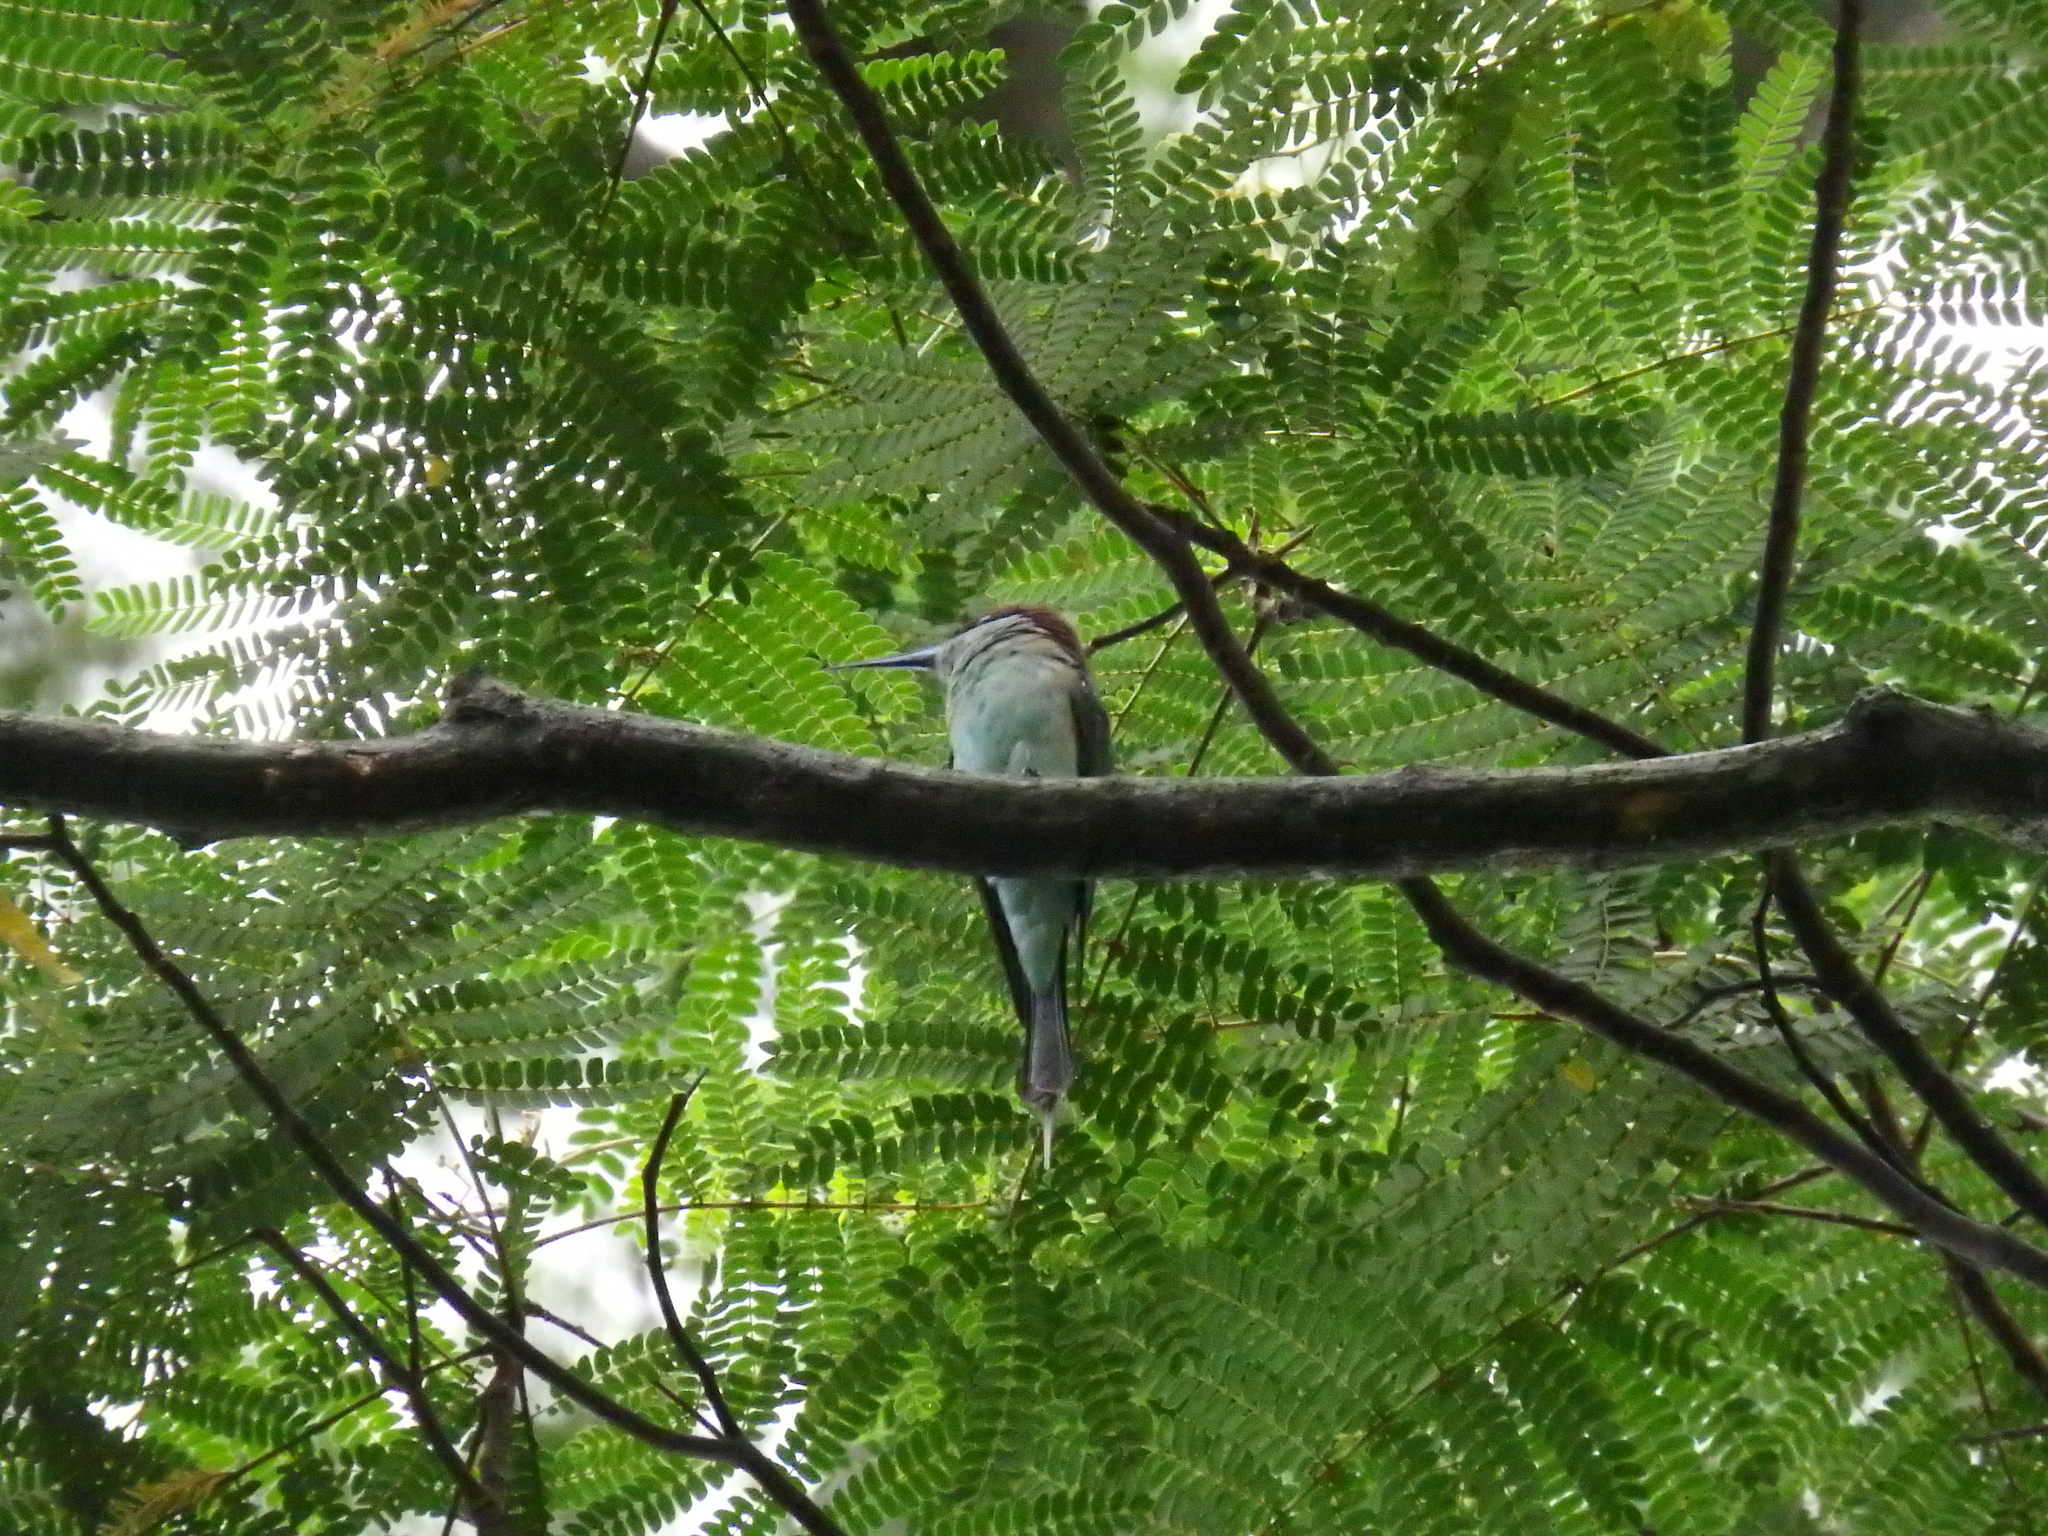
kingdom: Animalia
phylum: Chordata
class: Aves
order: Coraciiformes
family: Meropidae
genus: Merops
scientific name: Merops viridis
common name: Blue-throated bee-eater
